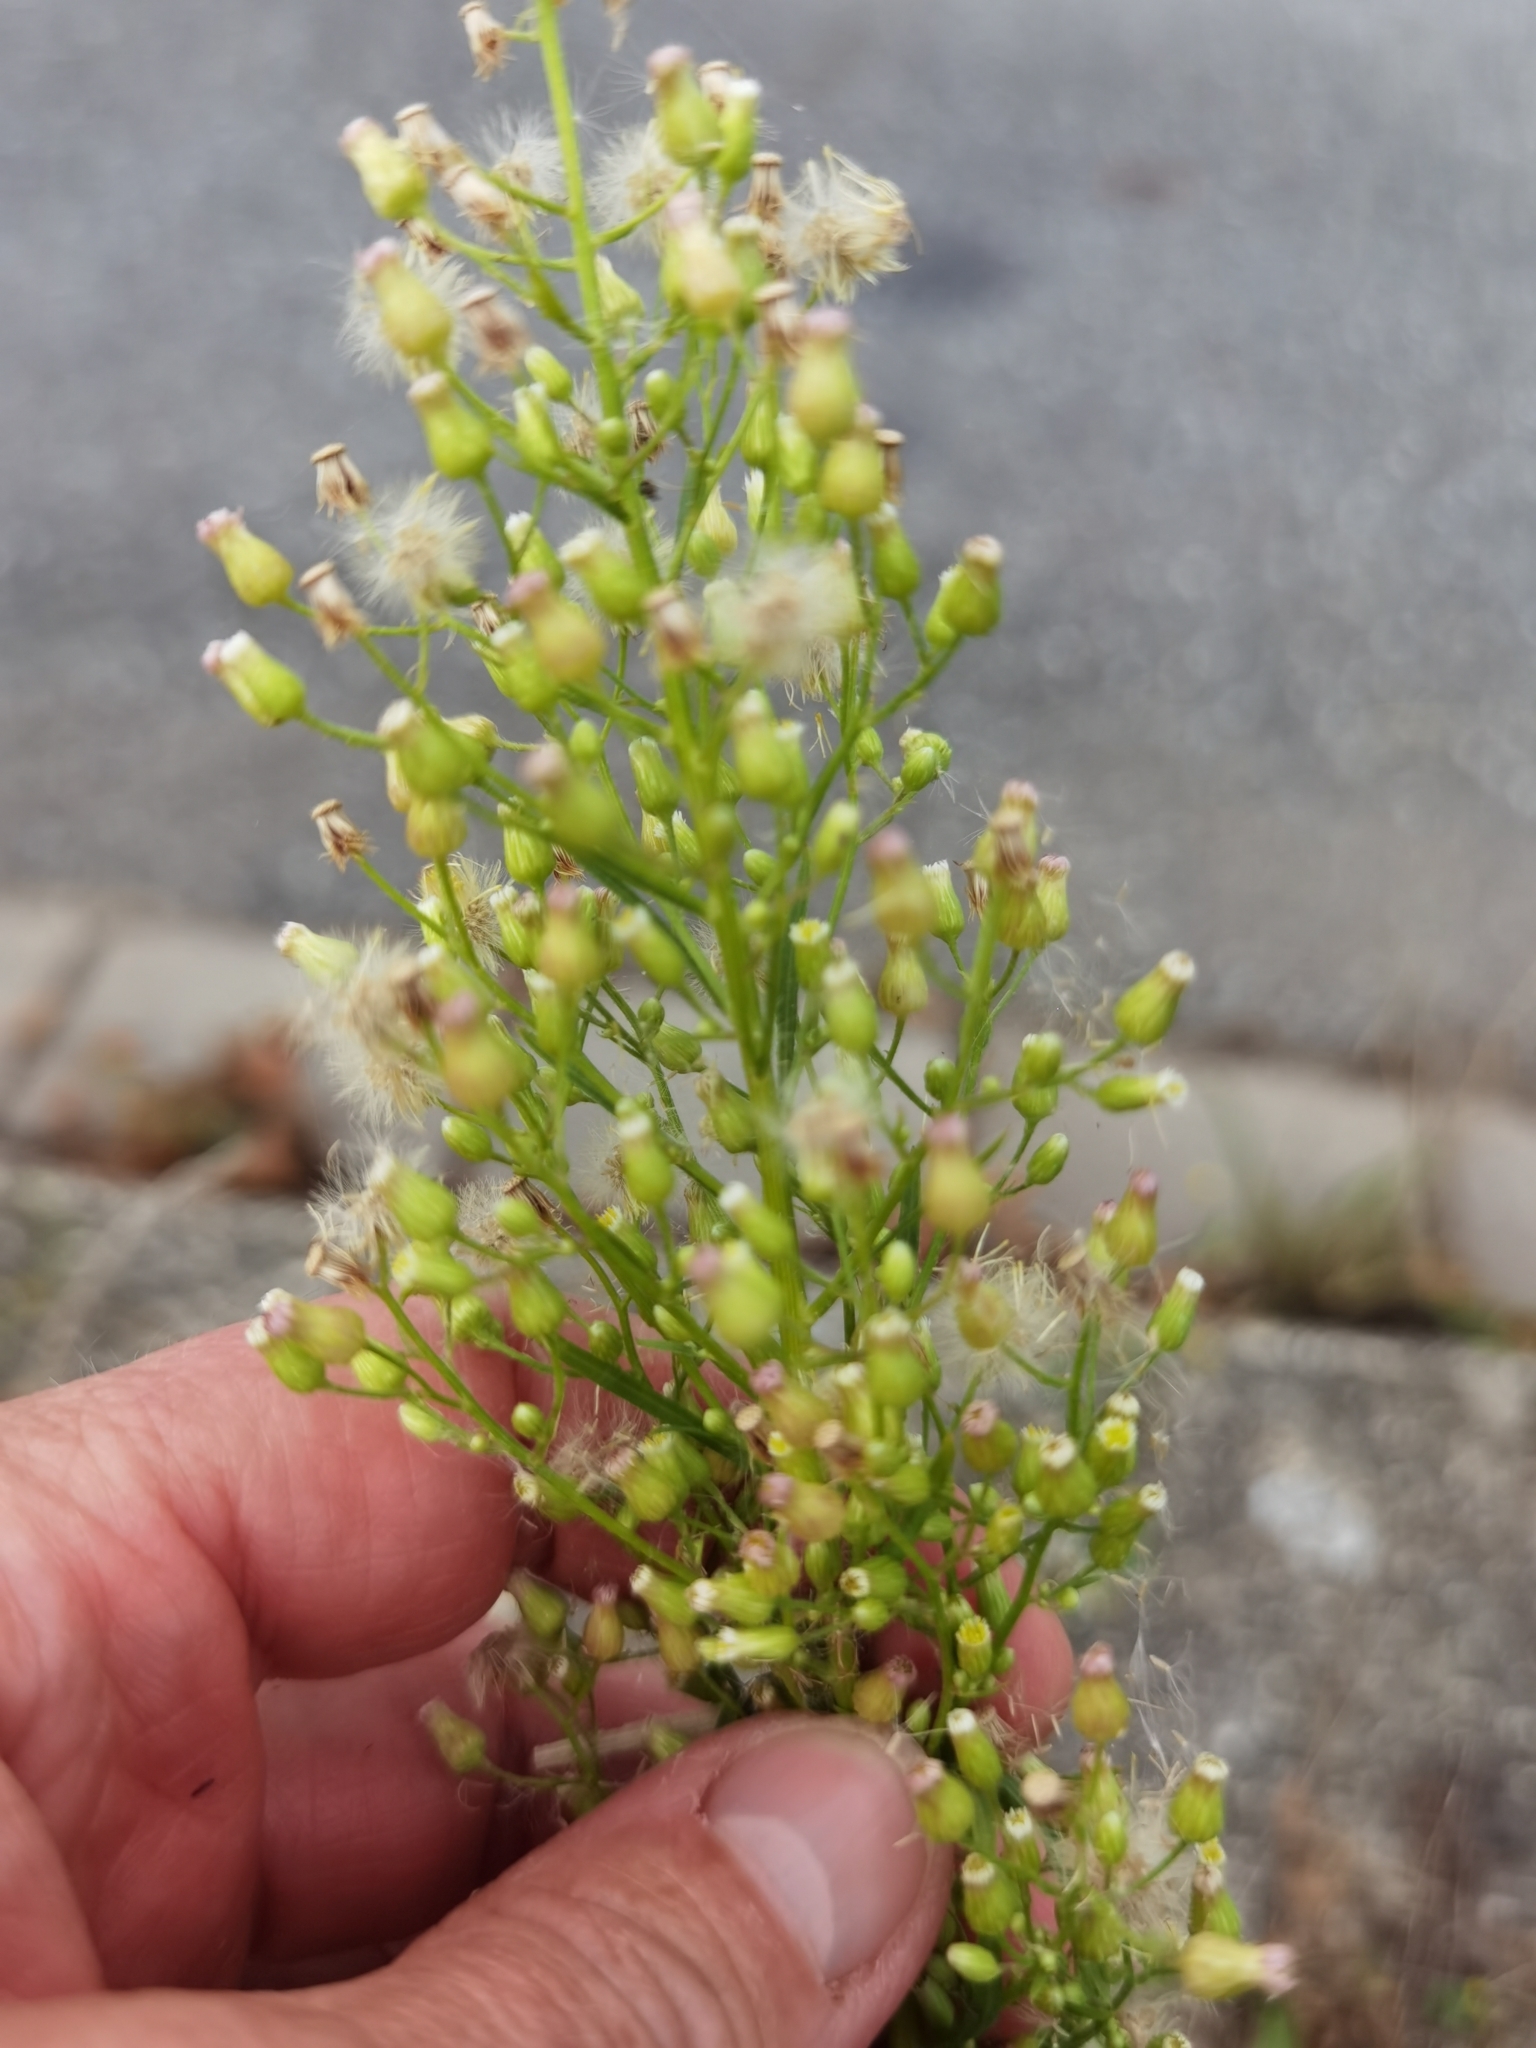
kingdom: Plantae
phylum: Tracheophyta
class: Magnoliopsida
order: Asterales
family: Asteraceae
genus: Erigeron
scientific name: Erigeron canadensis
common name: Canadian fleabane
